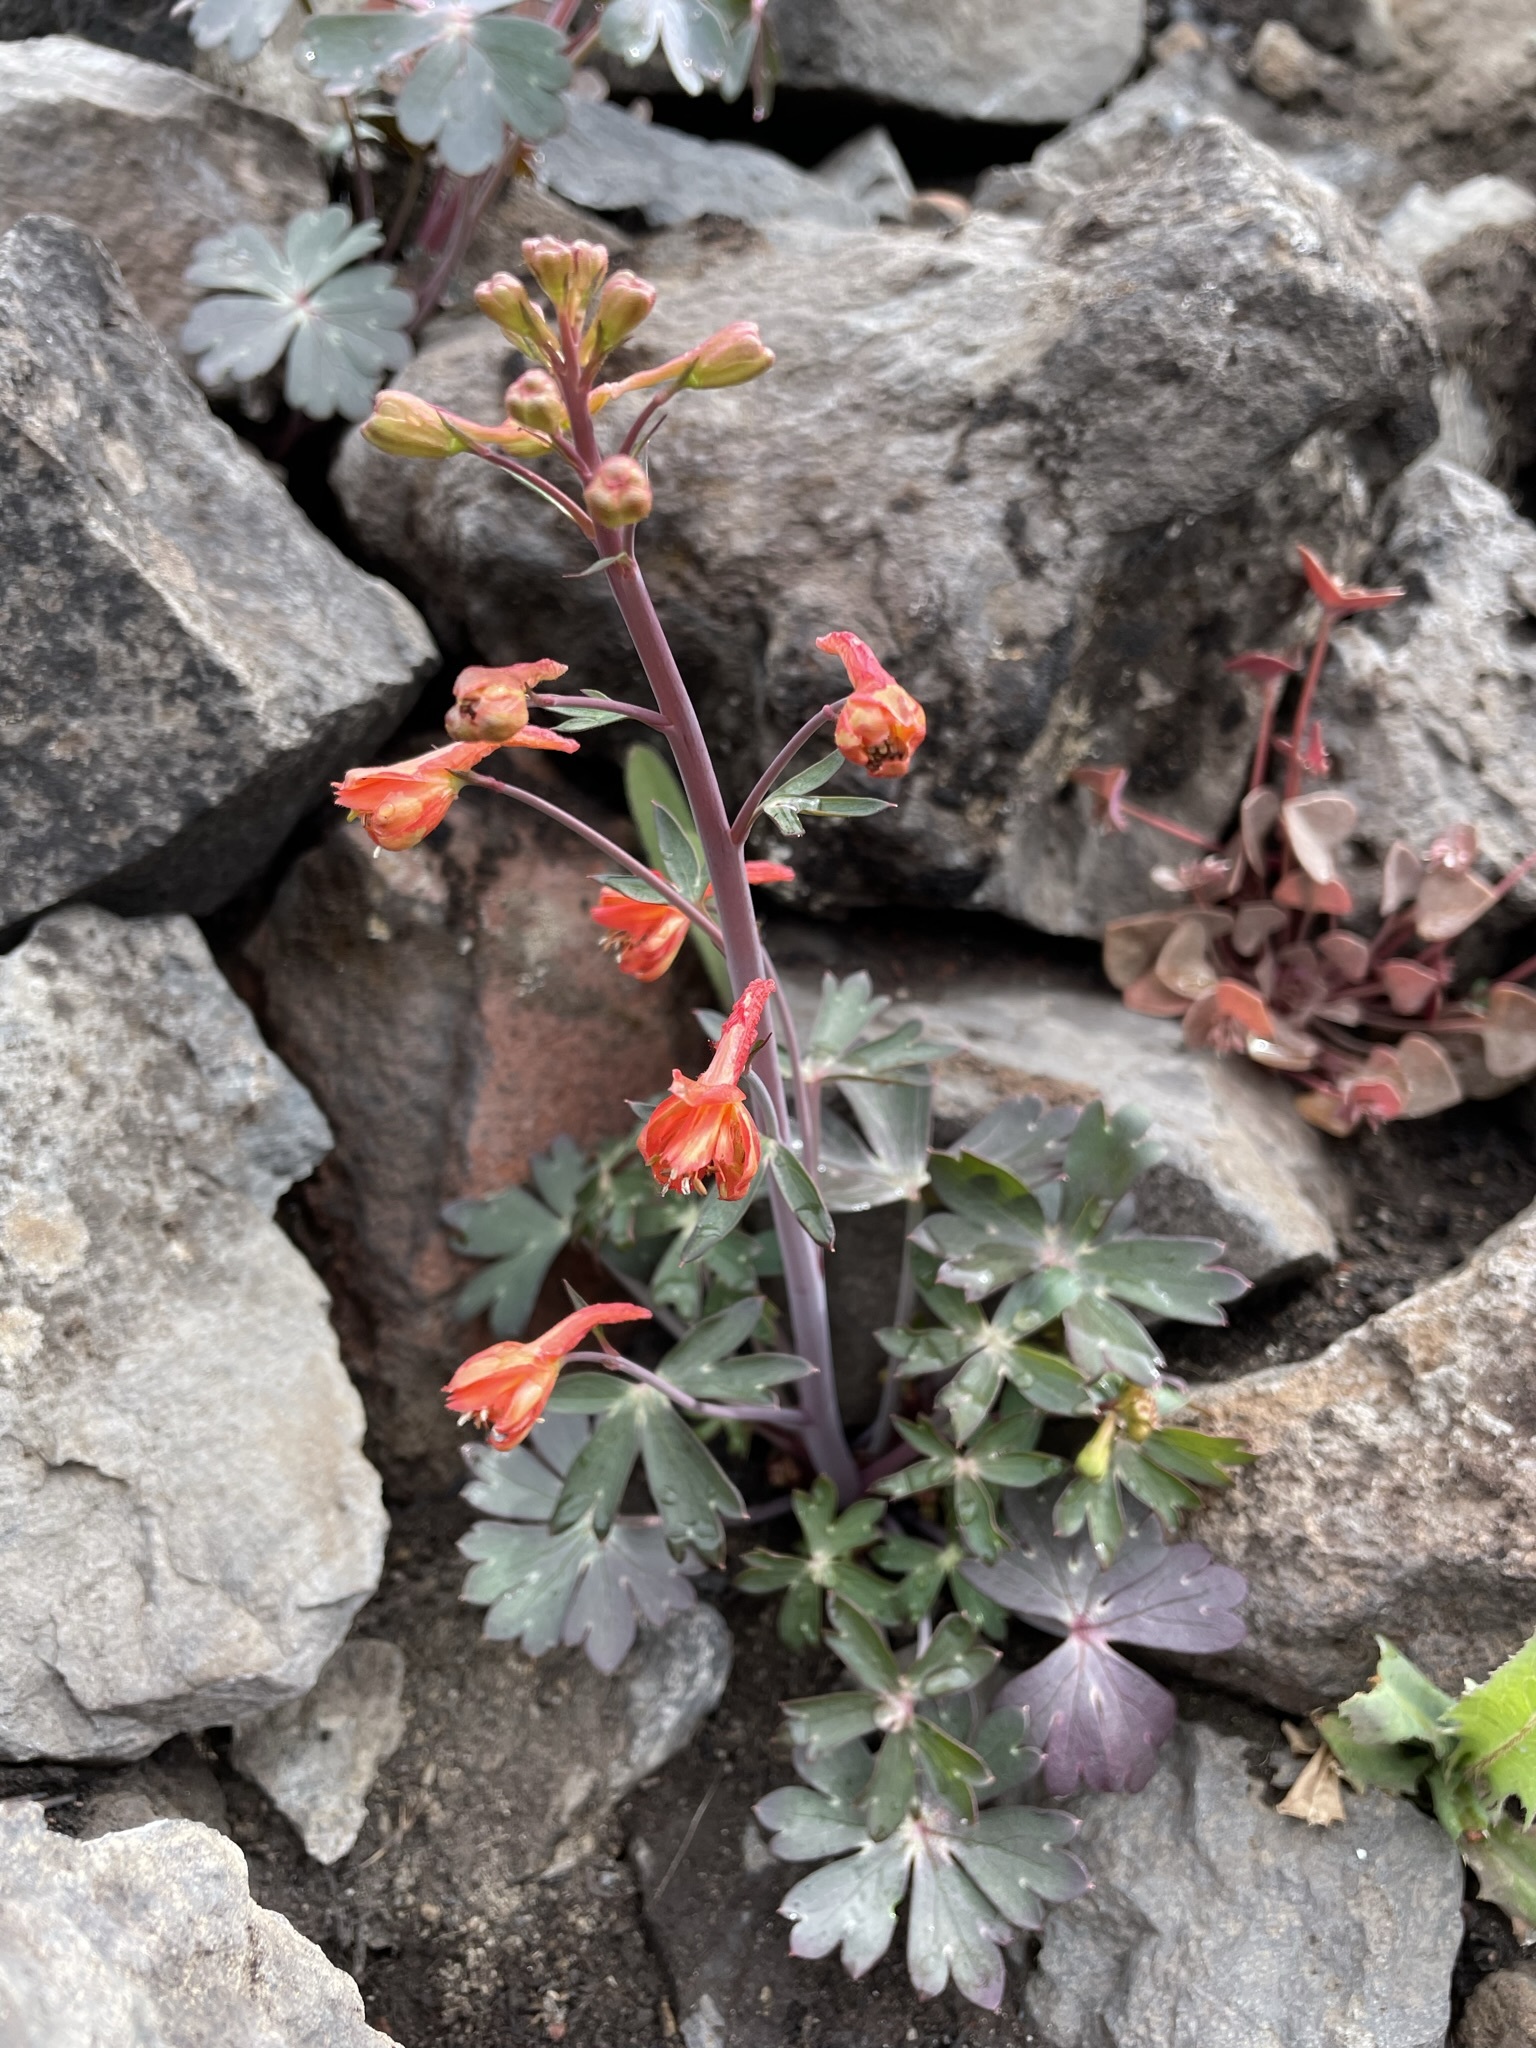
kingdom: Plantae
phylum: Tracheophyta
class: Magnoliopsida
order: Ranunculales
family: Ranunculaceae
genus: Delphinium
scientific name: Delphinium nudicaule
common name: Red larkspur
